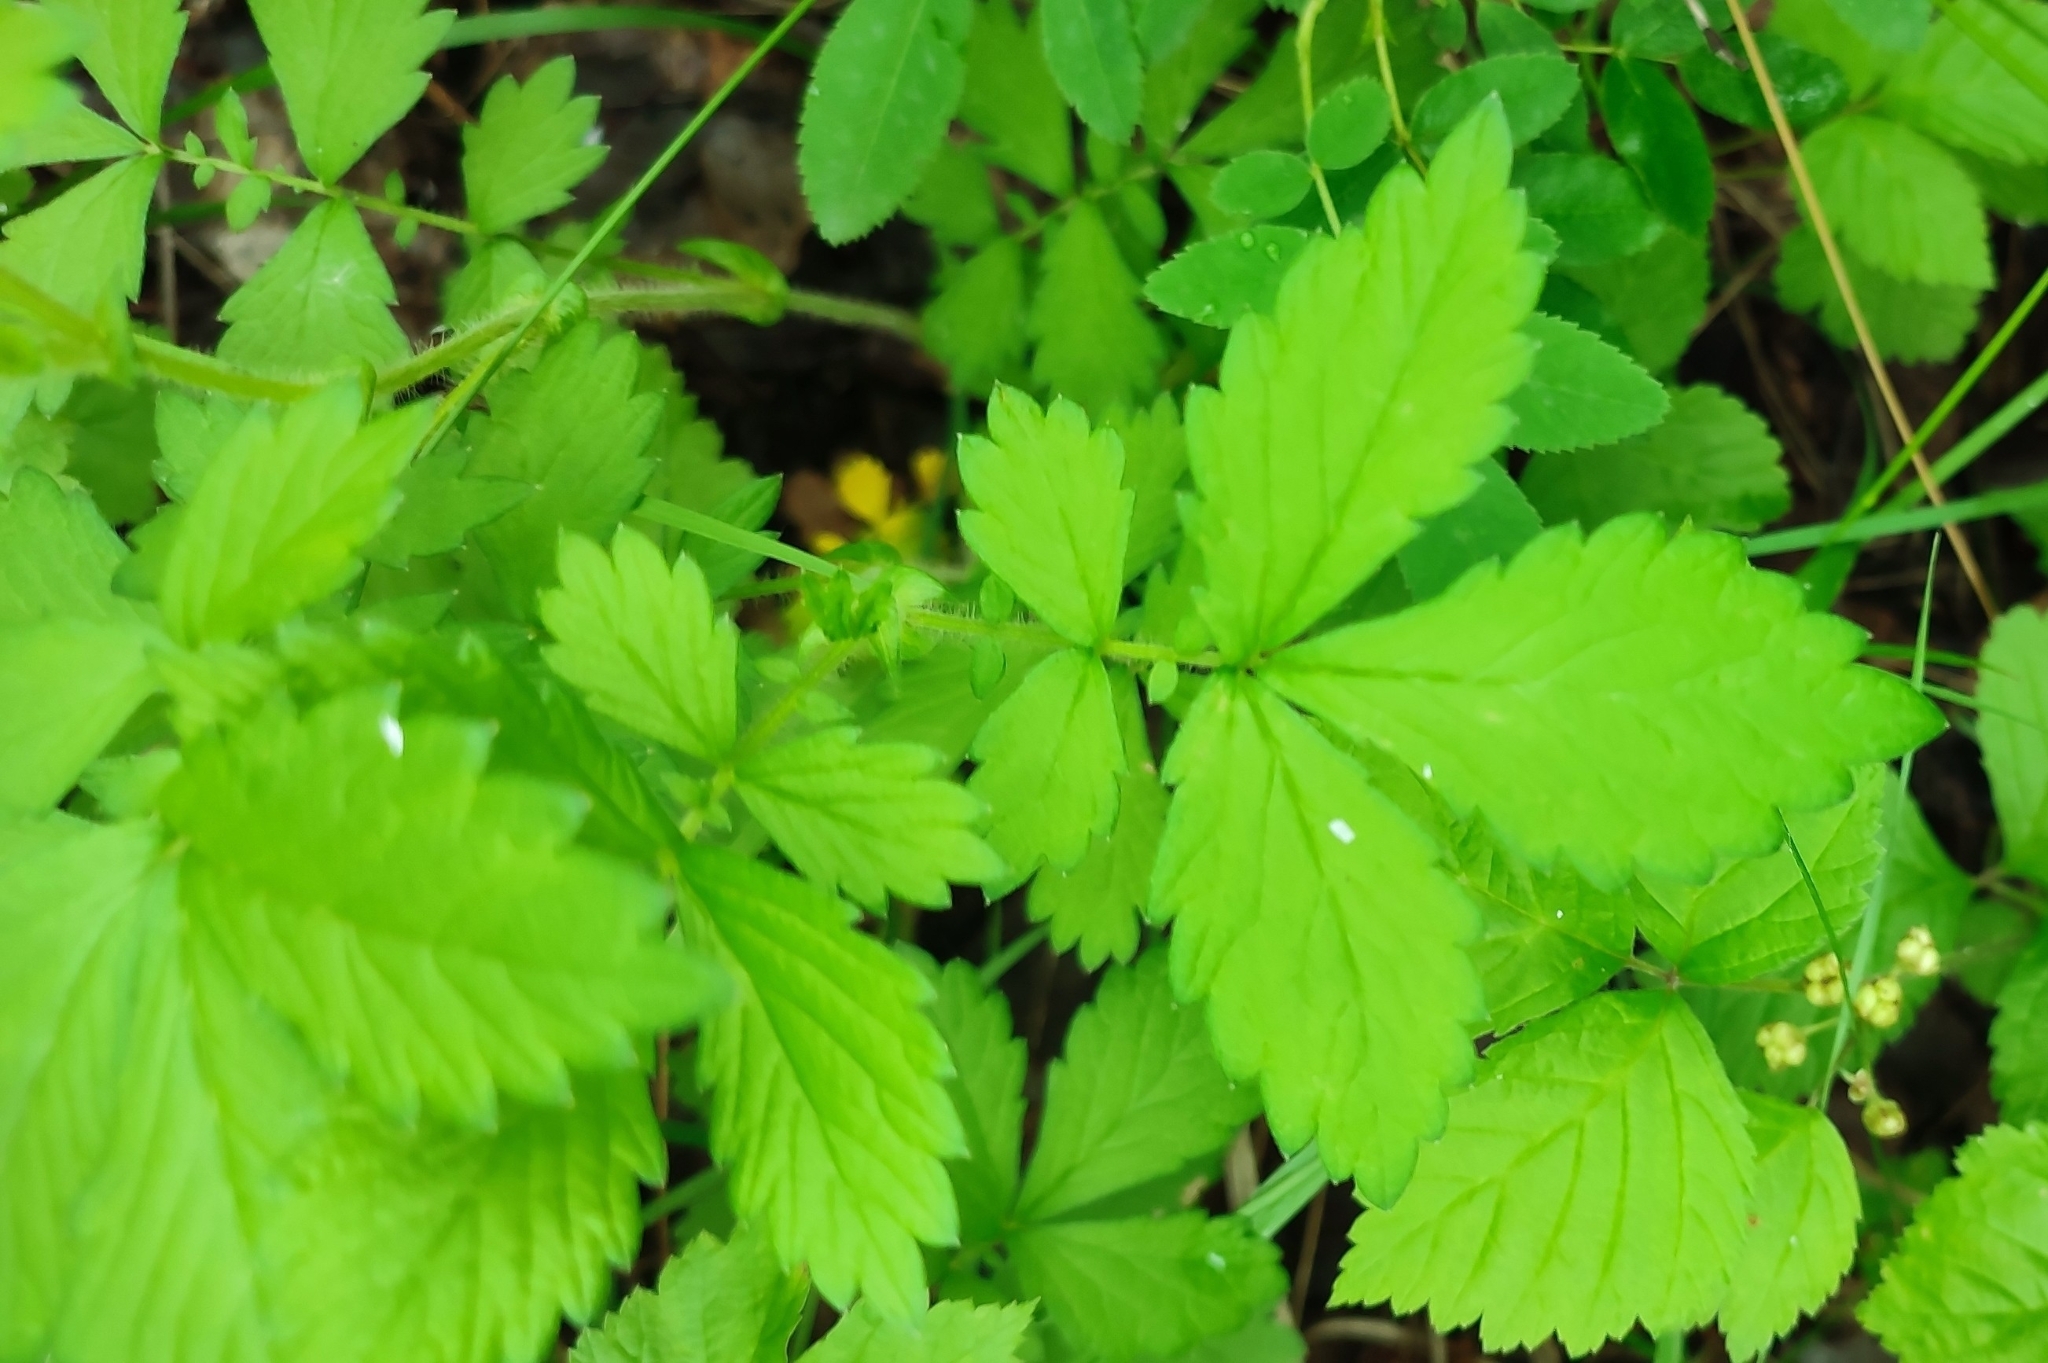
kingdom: Plantae
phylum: Tracheophyta
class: Magnoliopsida
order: Rosales
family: Rosaceae
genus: Agrimonia
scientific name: Agrimonia pilosa
